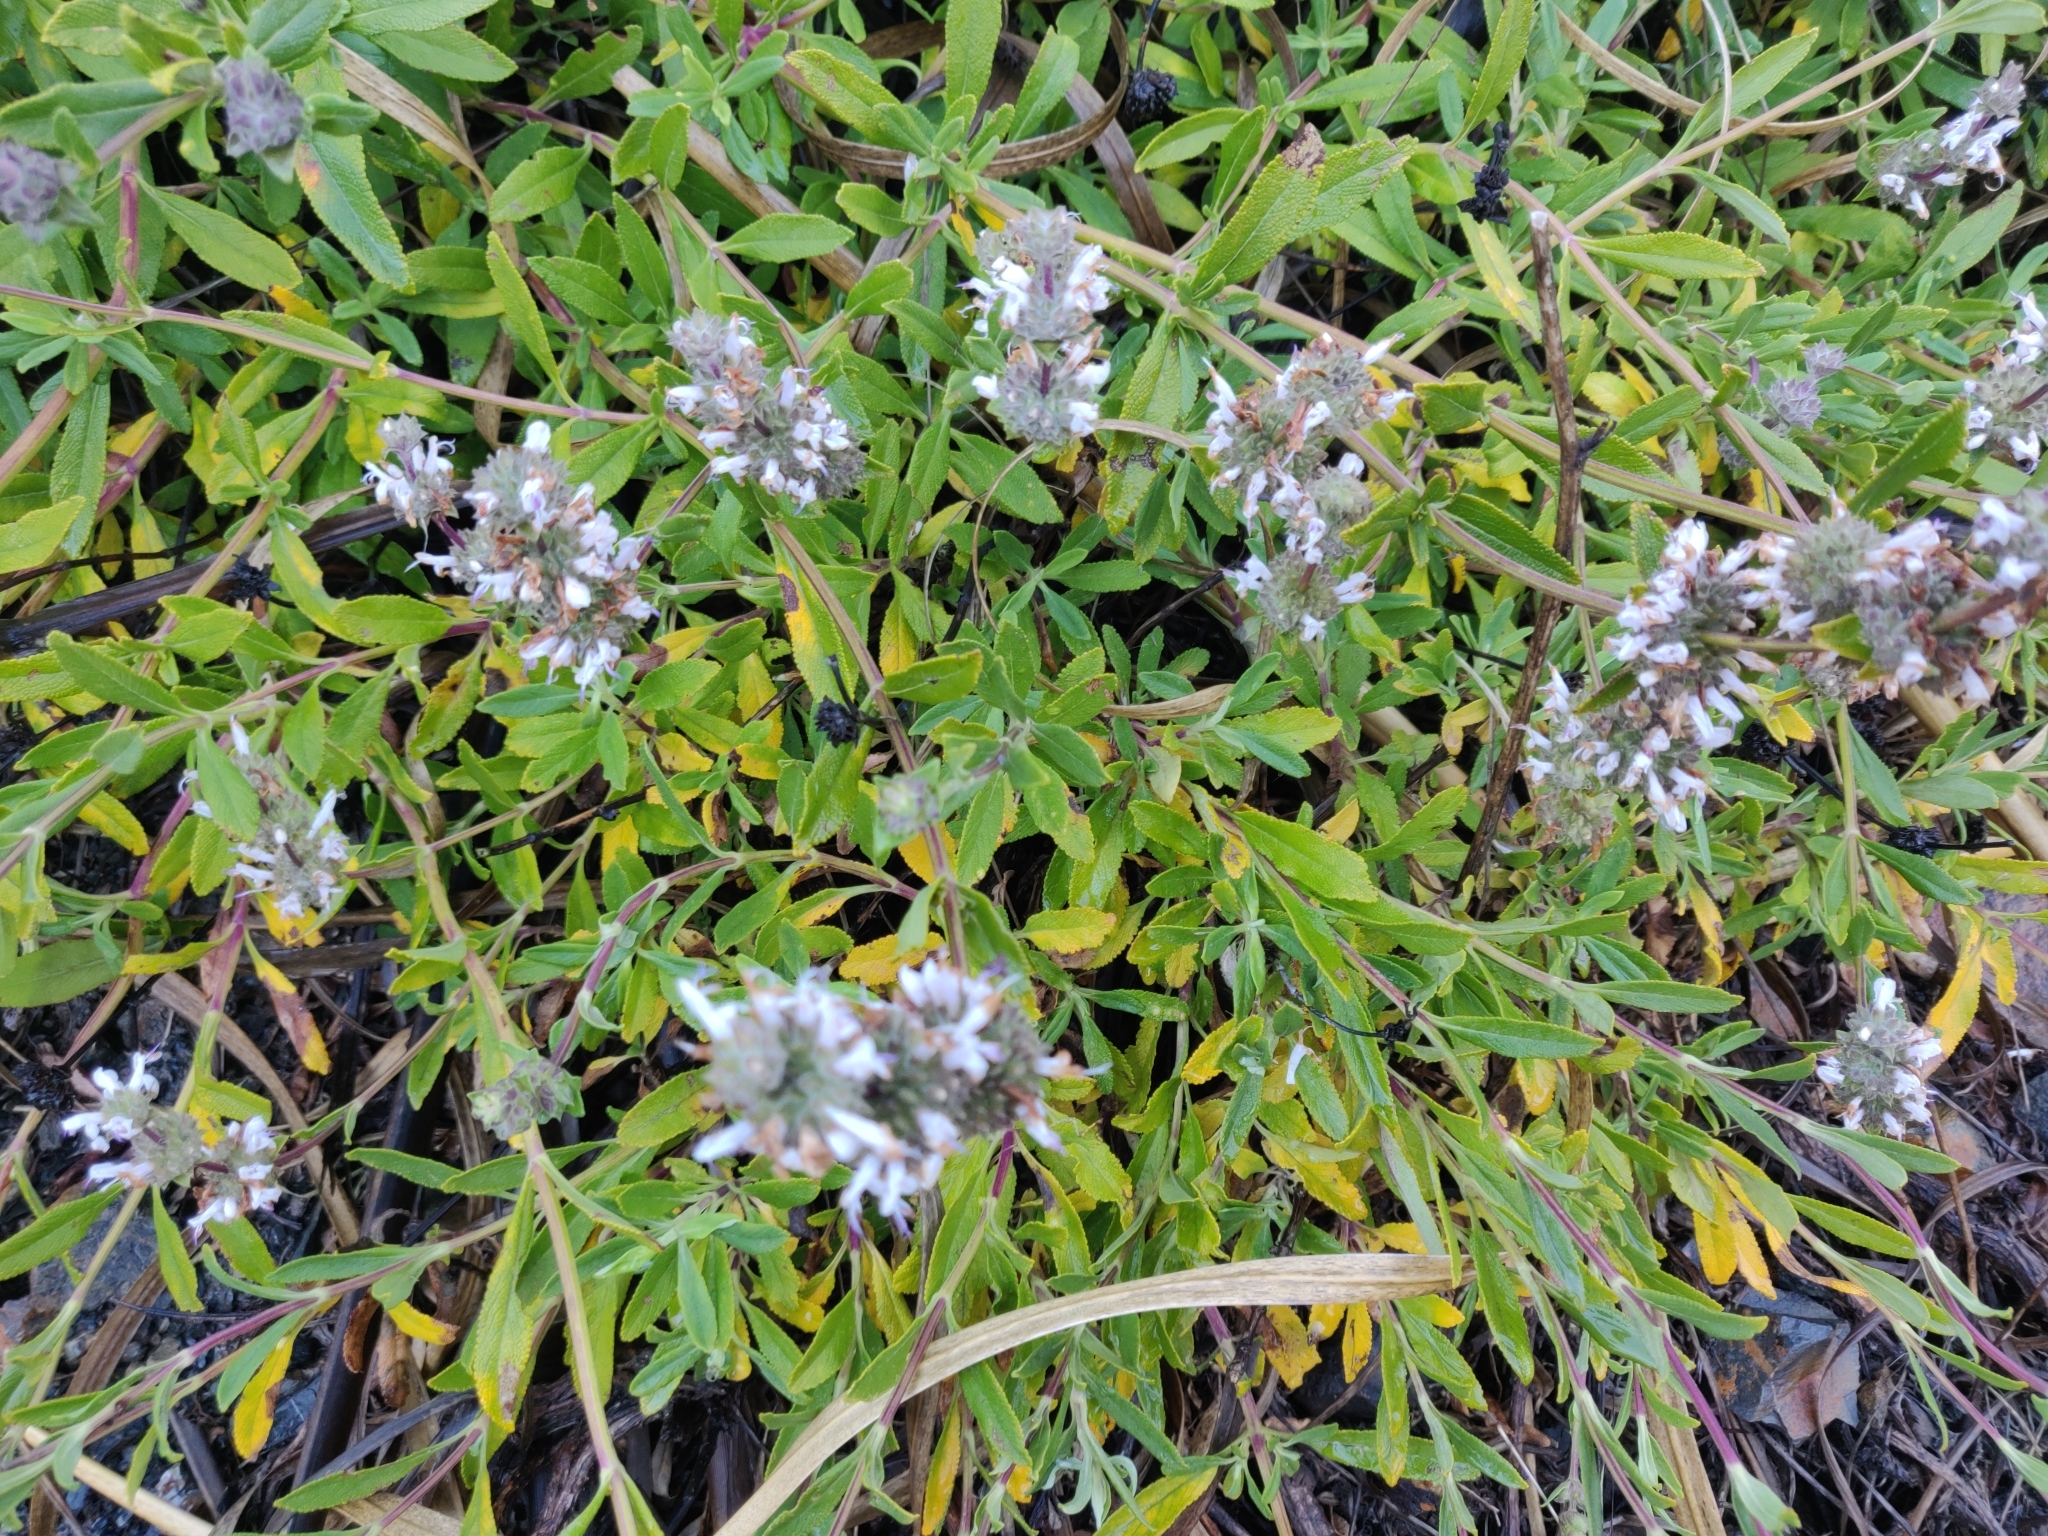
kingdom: Plantae
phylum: Tracheophyta
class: Magnoliopsida
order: Lamiales
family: Lamiaceae
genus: Salvia
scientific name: Salvia mellifera
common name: Black sage
